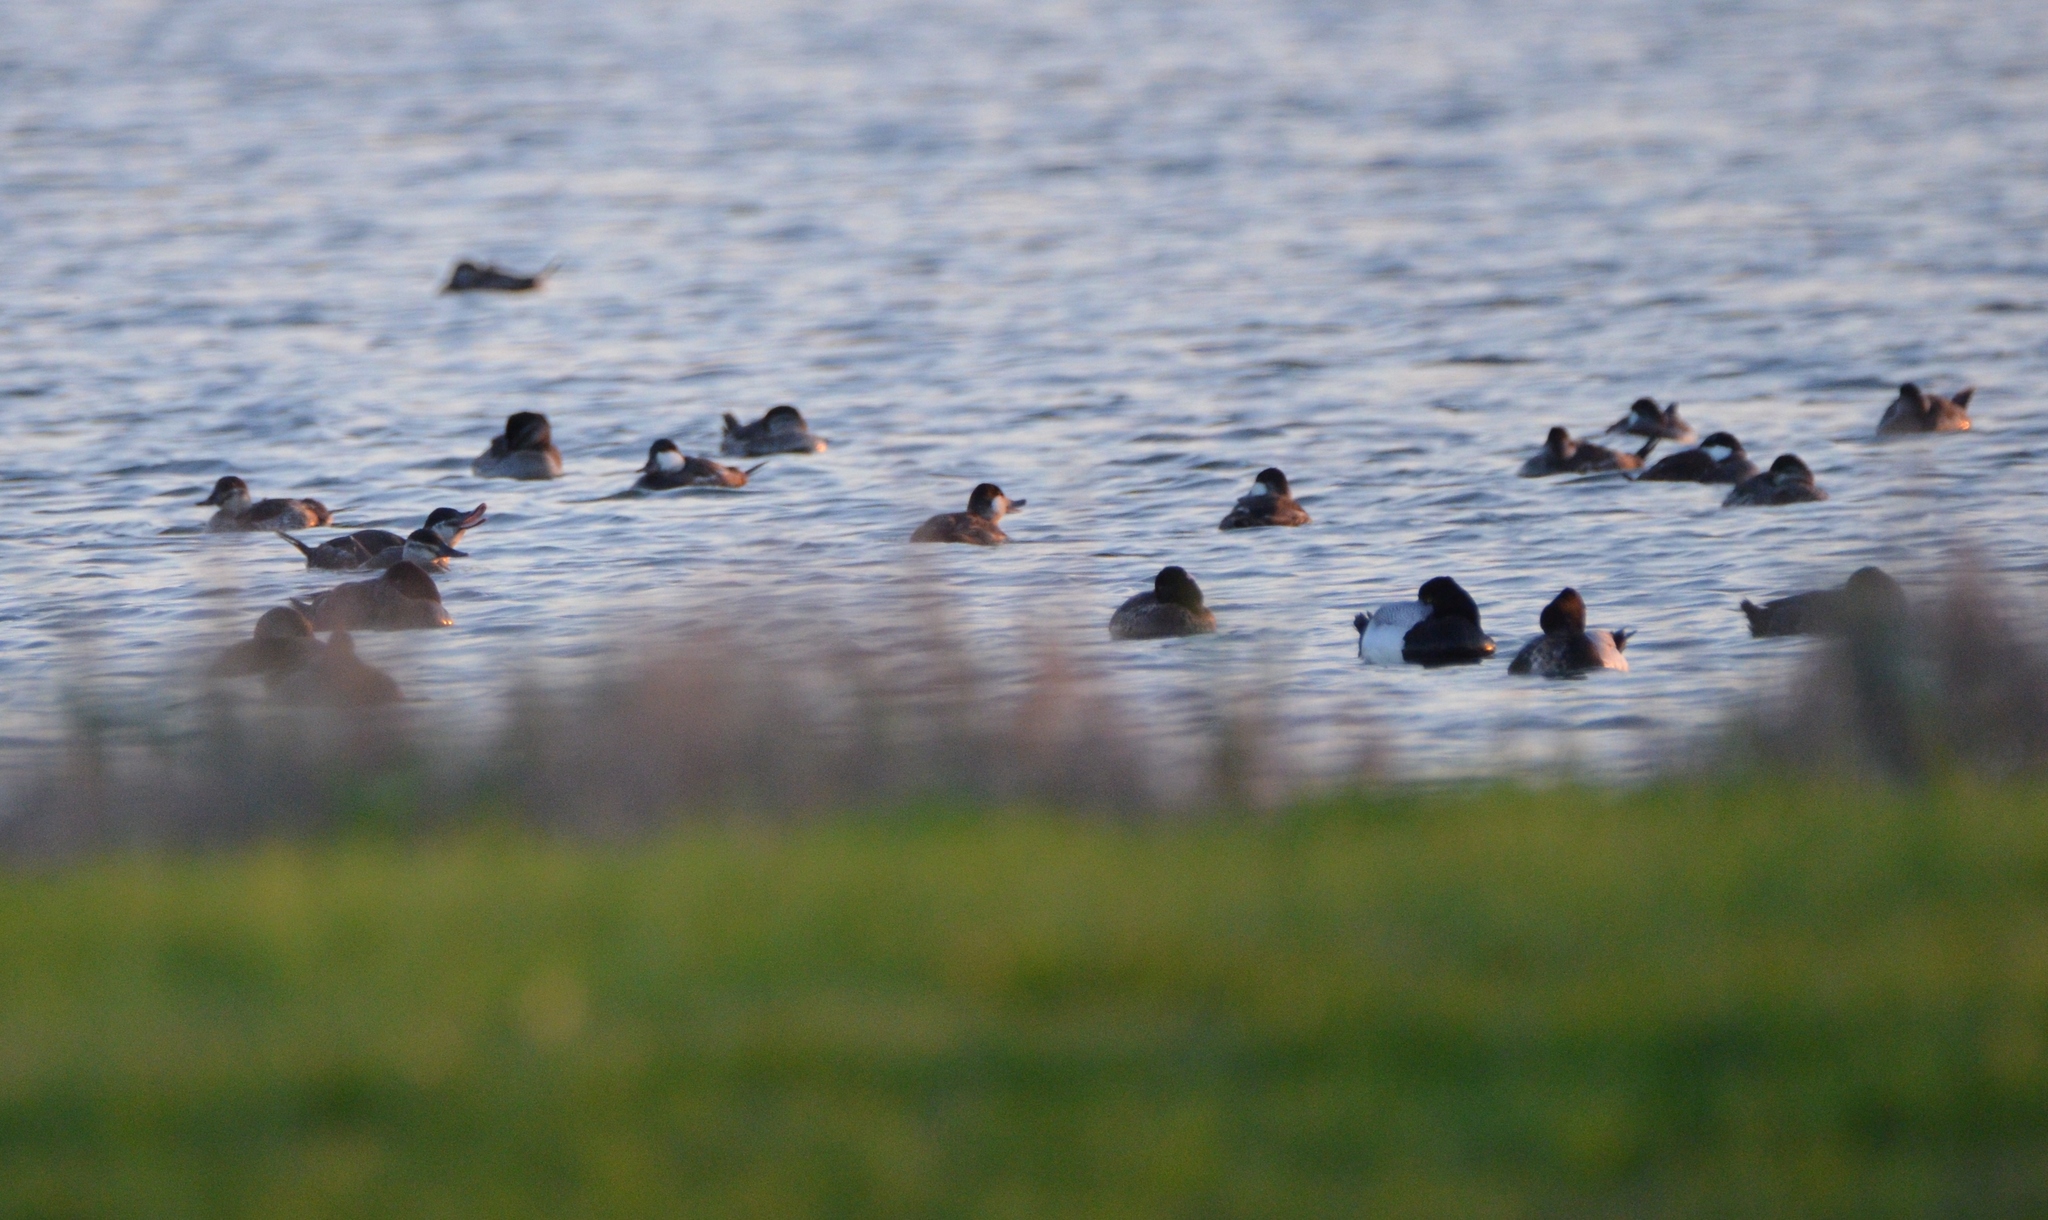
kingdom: Animalia
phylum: Chordata
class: Aves
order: Anseriformes
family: Anatidae
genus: Oxyura
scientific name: Oxyura jamaicensis
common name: Ruddy duck
